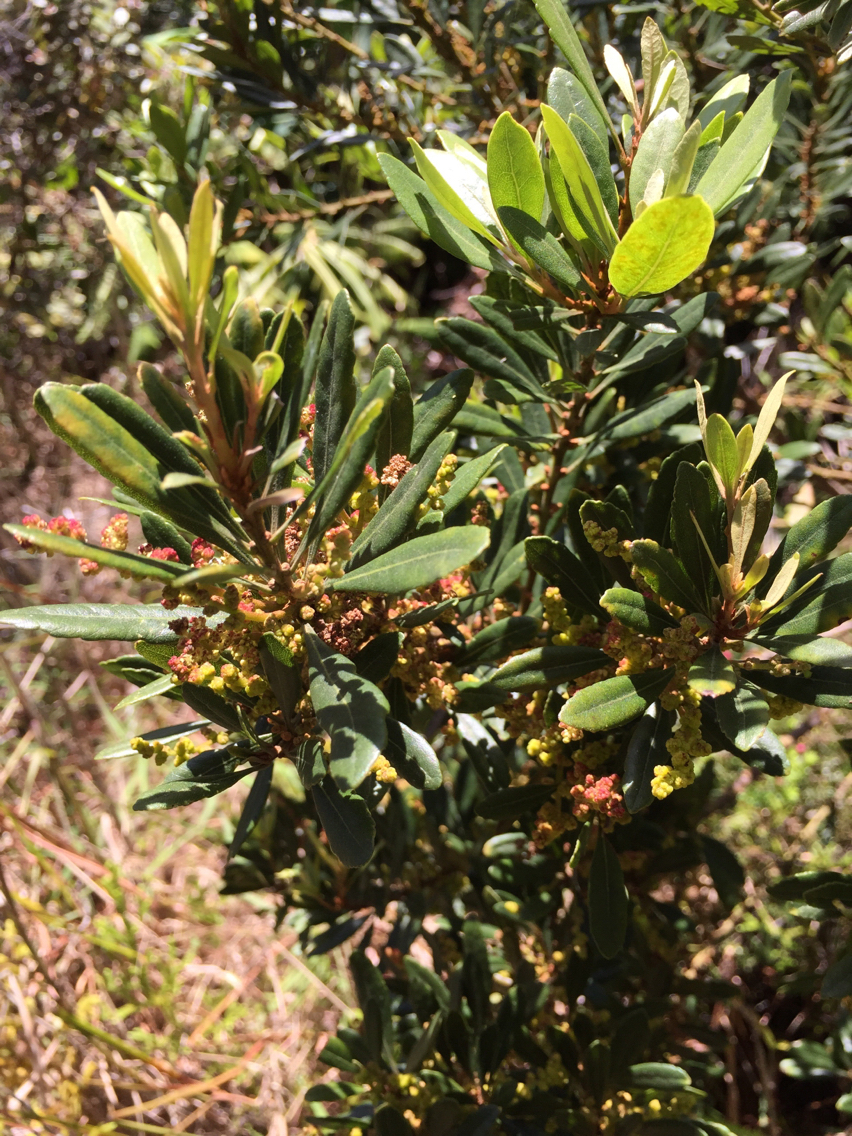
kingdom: Plantae
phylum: Tracheophyta
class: Magnoliopsida
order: Fagales
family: Myricaceae
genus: Morella
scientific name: Morella faya
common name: Firetree
